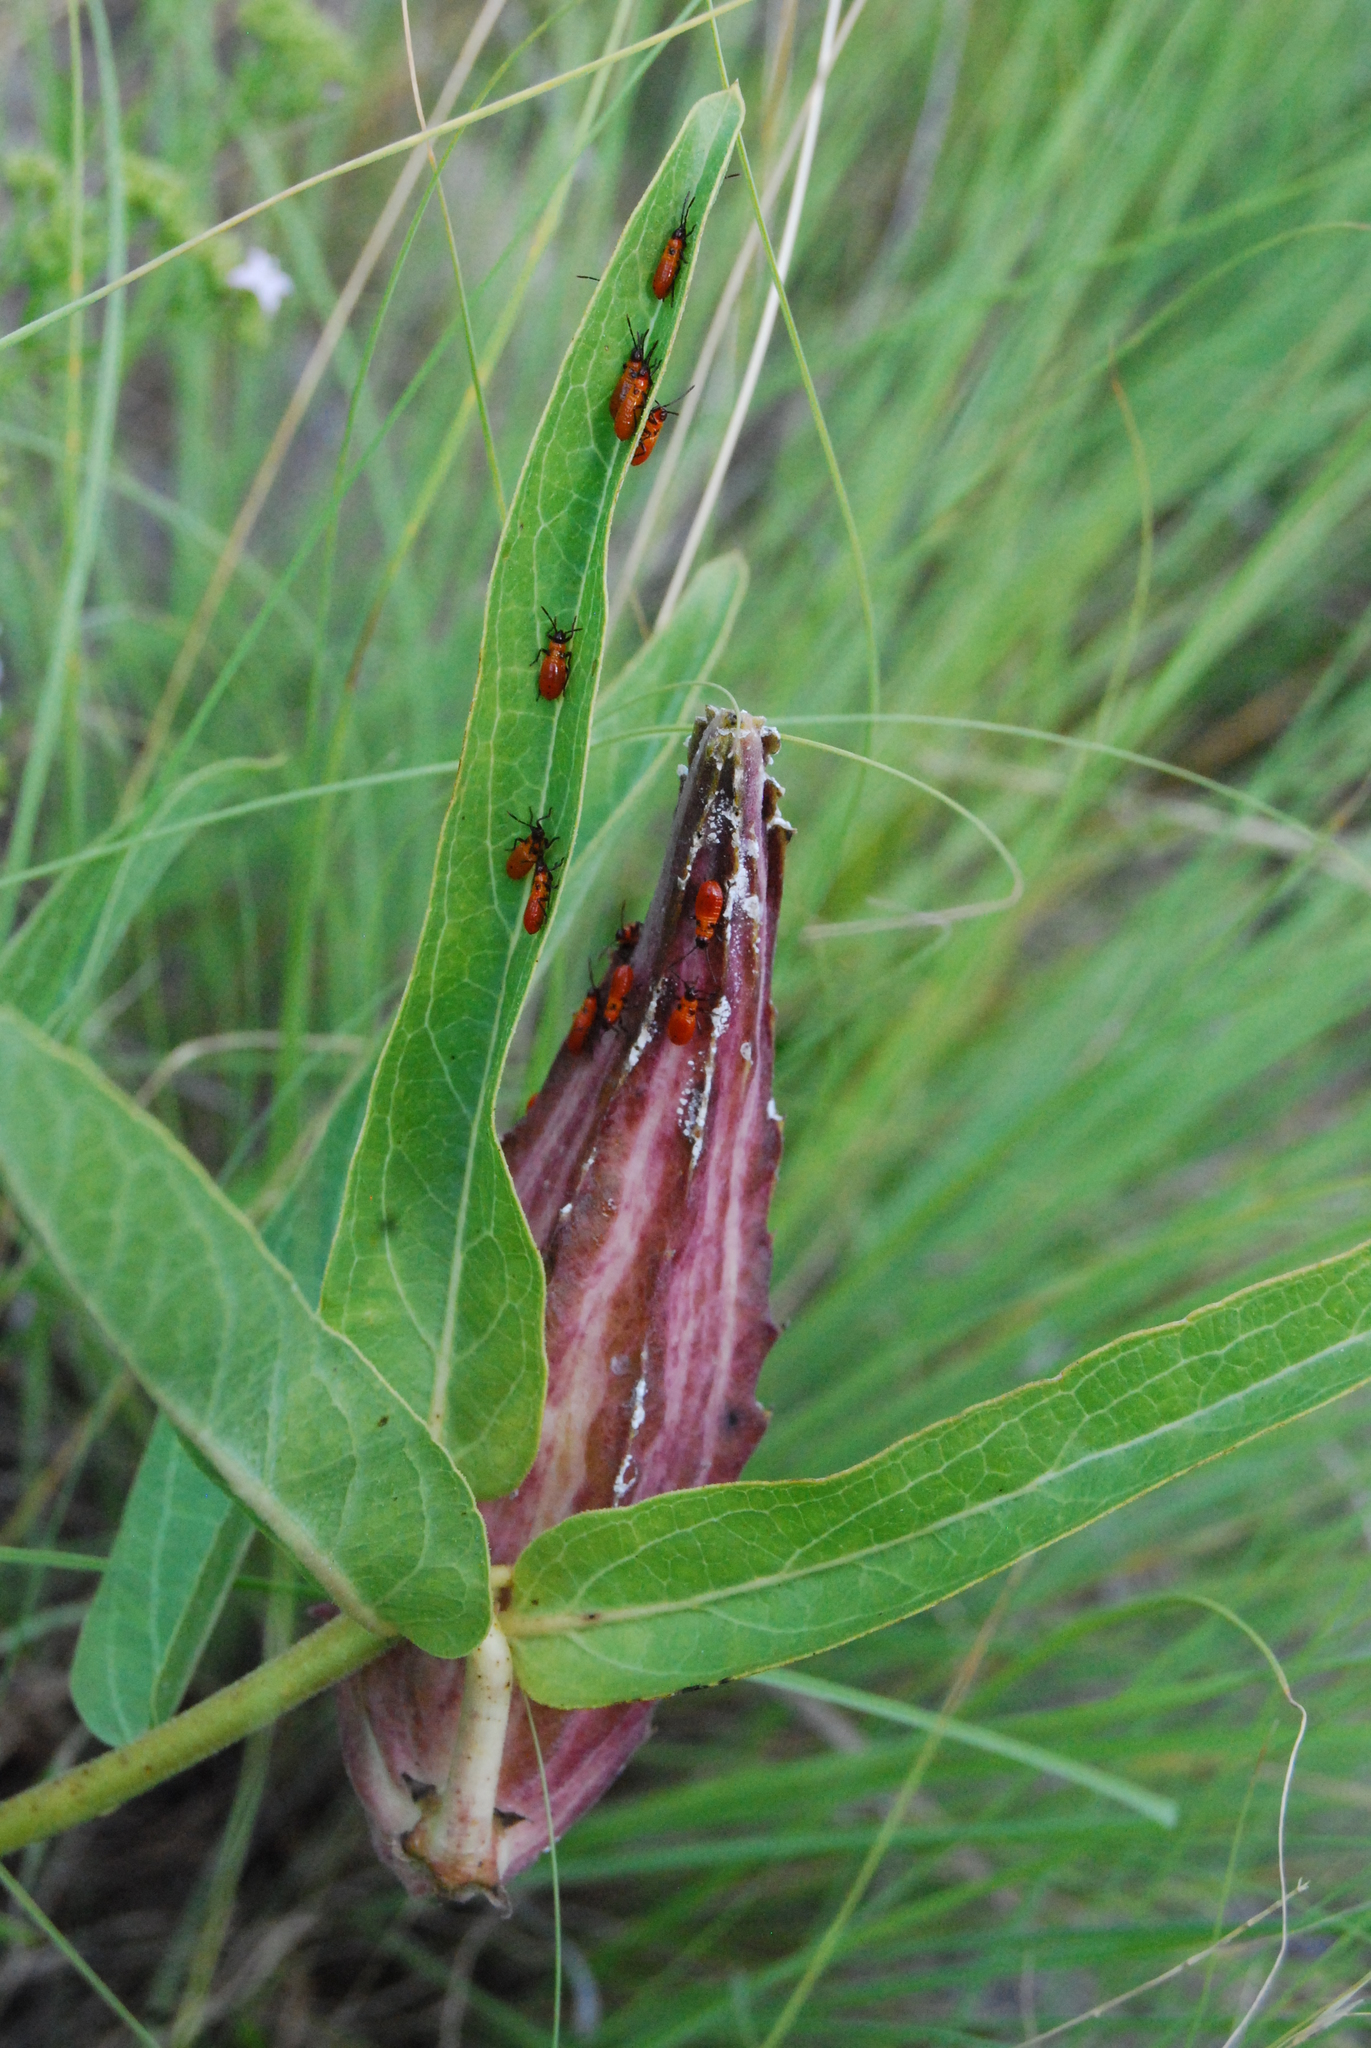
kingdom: Plantae
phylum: Tracheophyta
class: Magnoliopsida
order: Gentianales
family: Apocynaceae
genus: Asclepias
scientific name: Asclepias asperula
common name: Antelope horns
